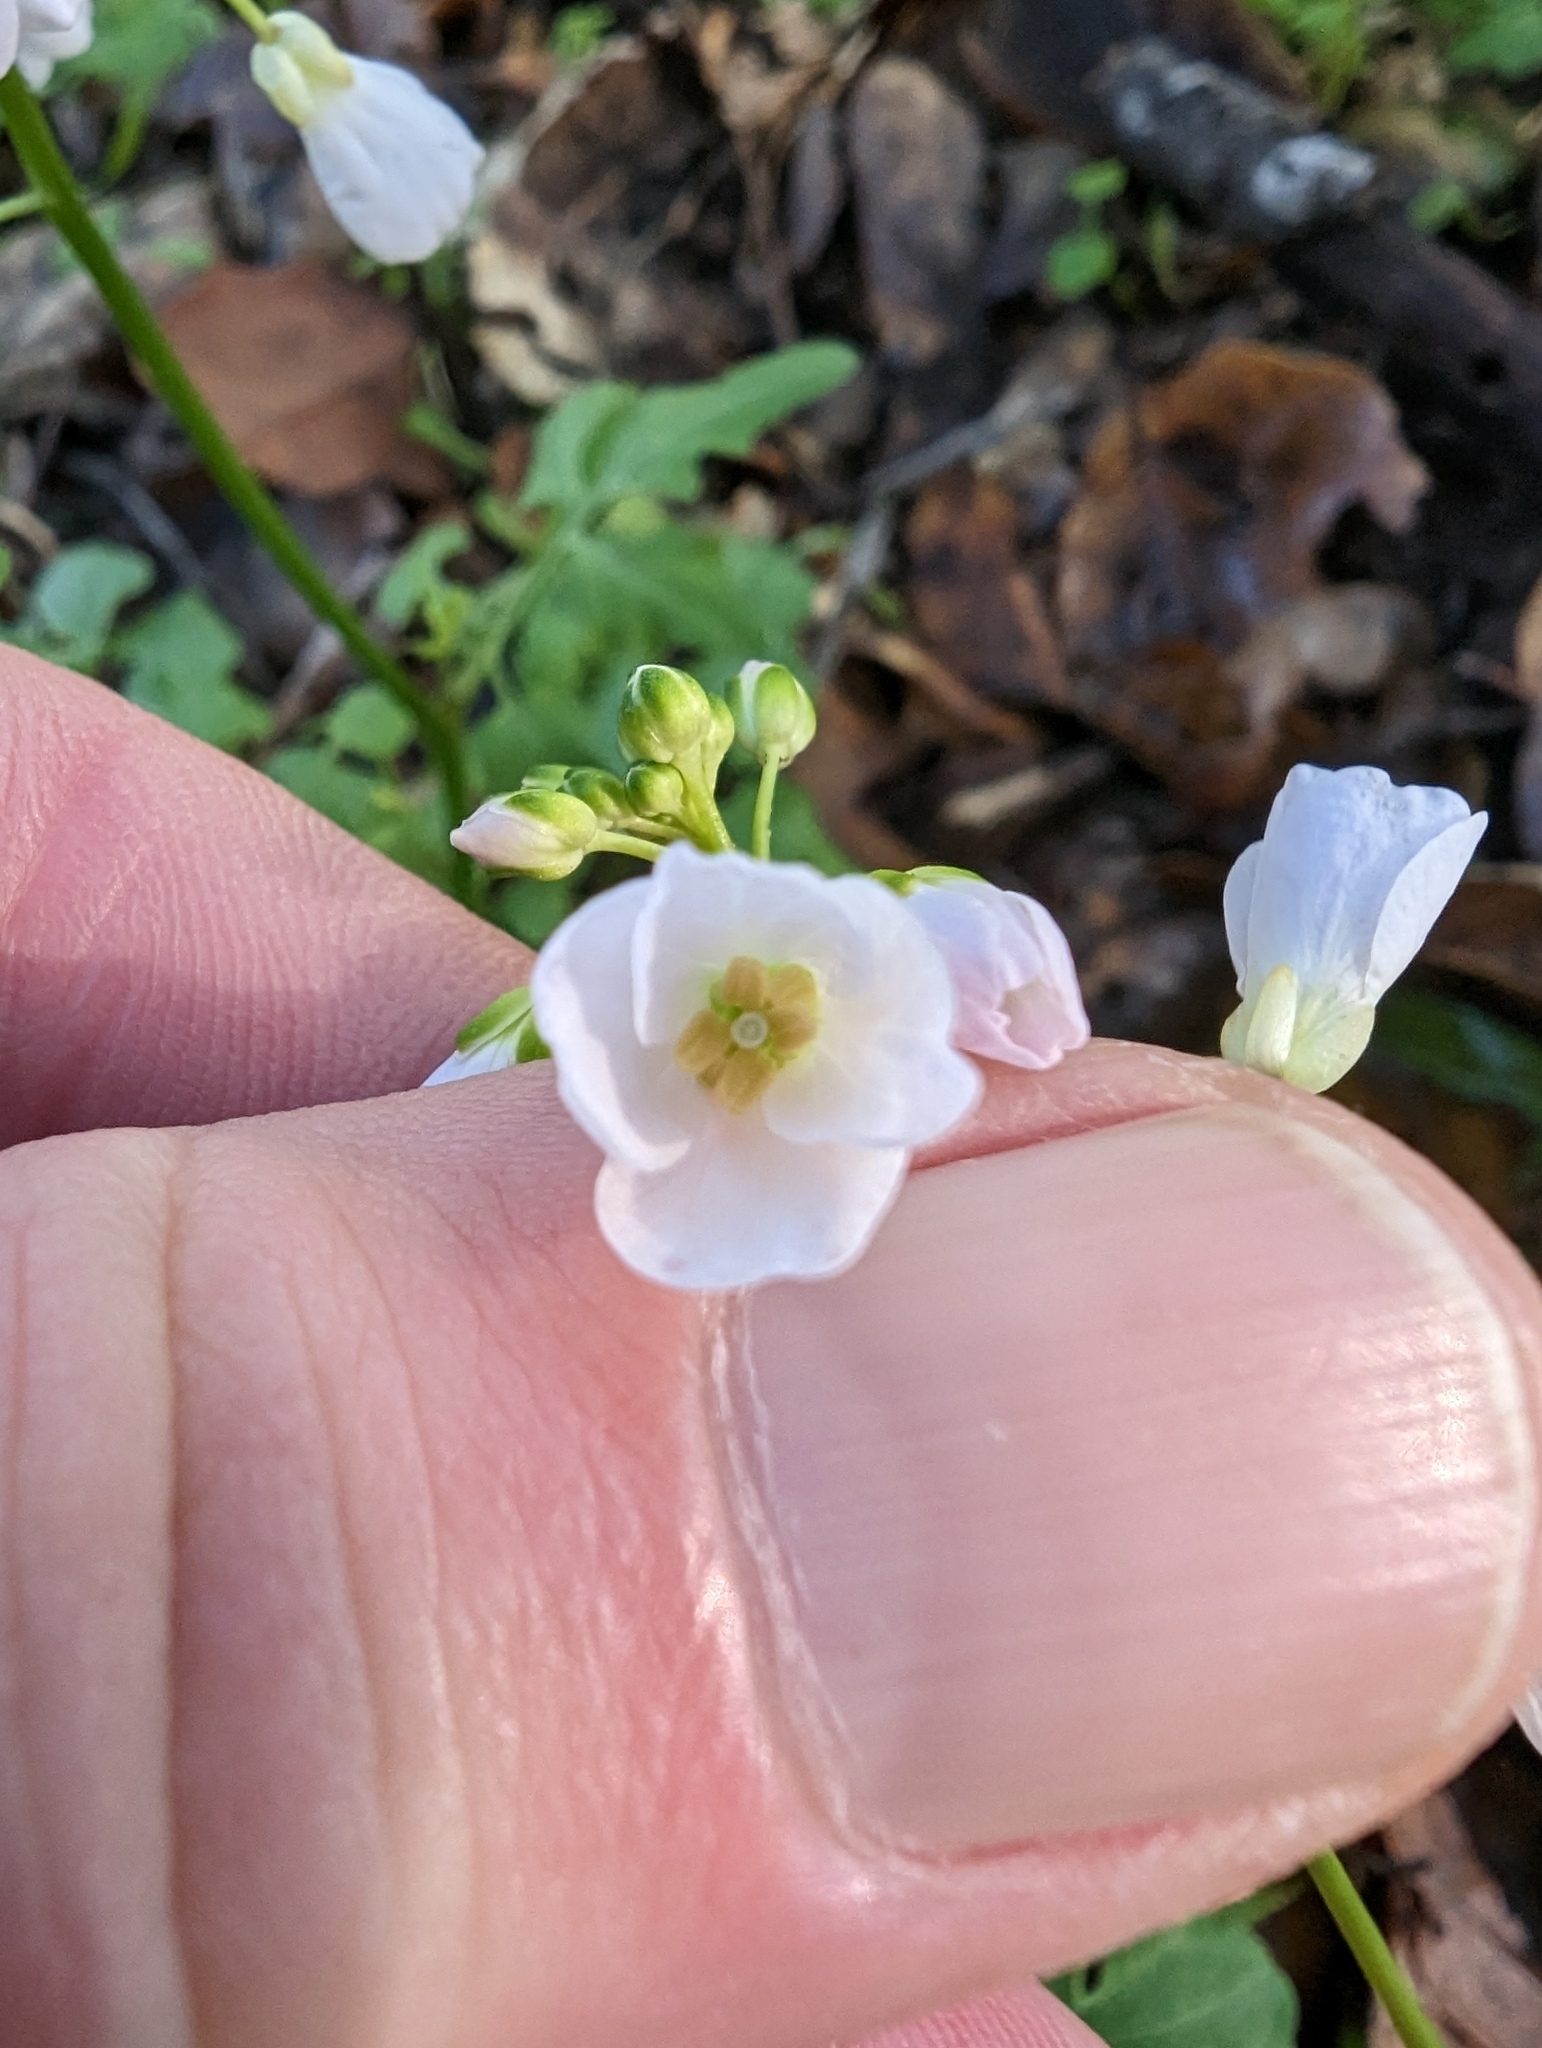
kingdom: Plantae
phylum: Tracheophyta
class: Magnoliopsida
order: Brassicales
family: Brassicaceae
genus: Cardamine
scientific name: Cardamine californica
